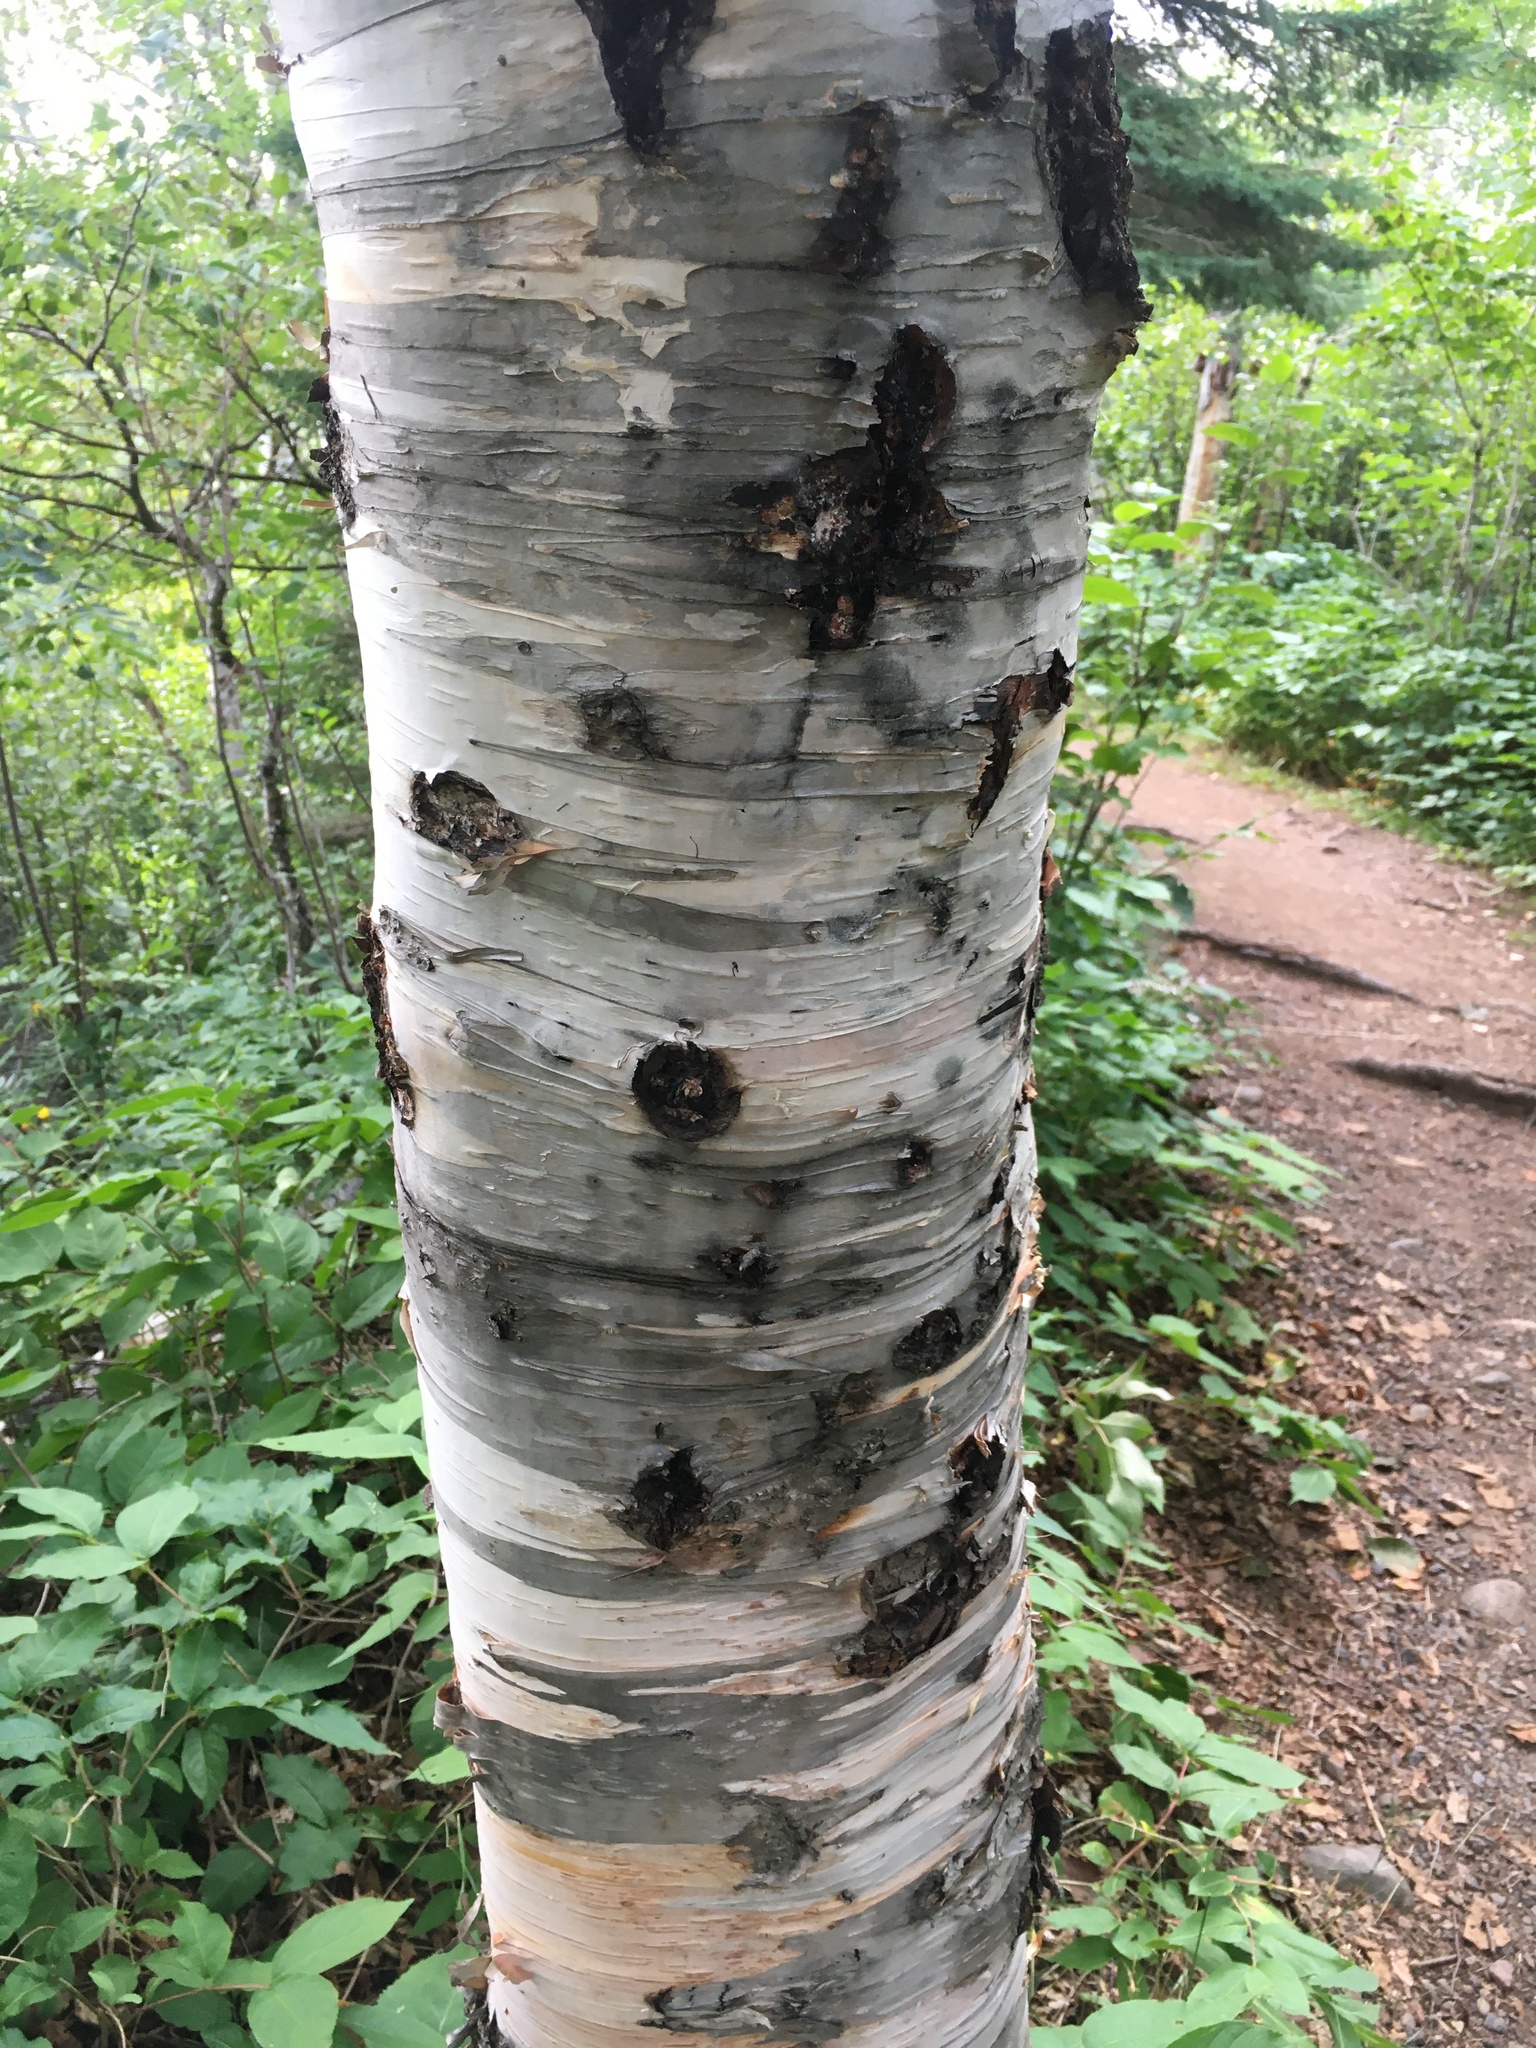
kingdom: Plantae
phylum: Tracheophyta
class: Magnoliopsida
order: Fagales
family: Betulaceae
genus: Betula
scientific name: Betula cordifolia
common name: Mountain white birch
